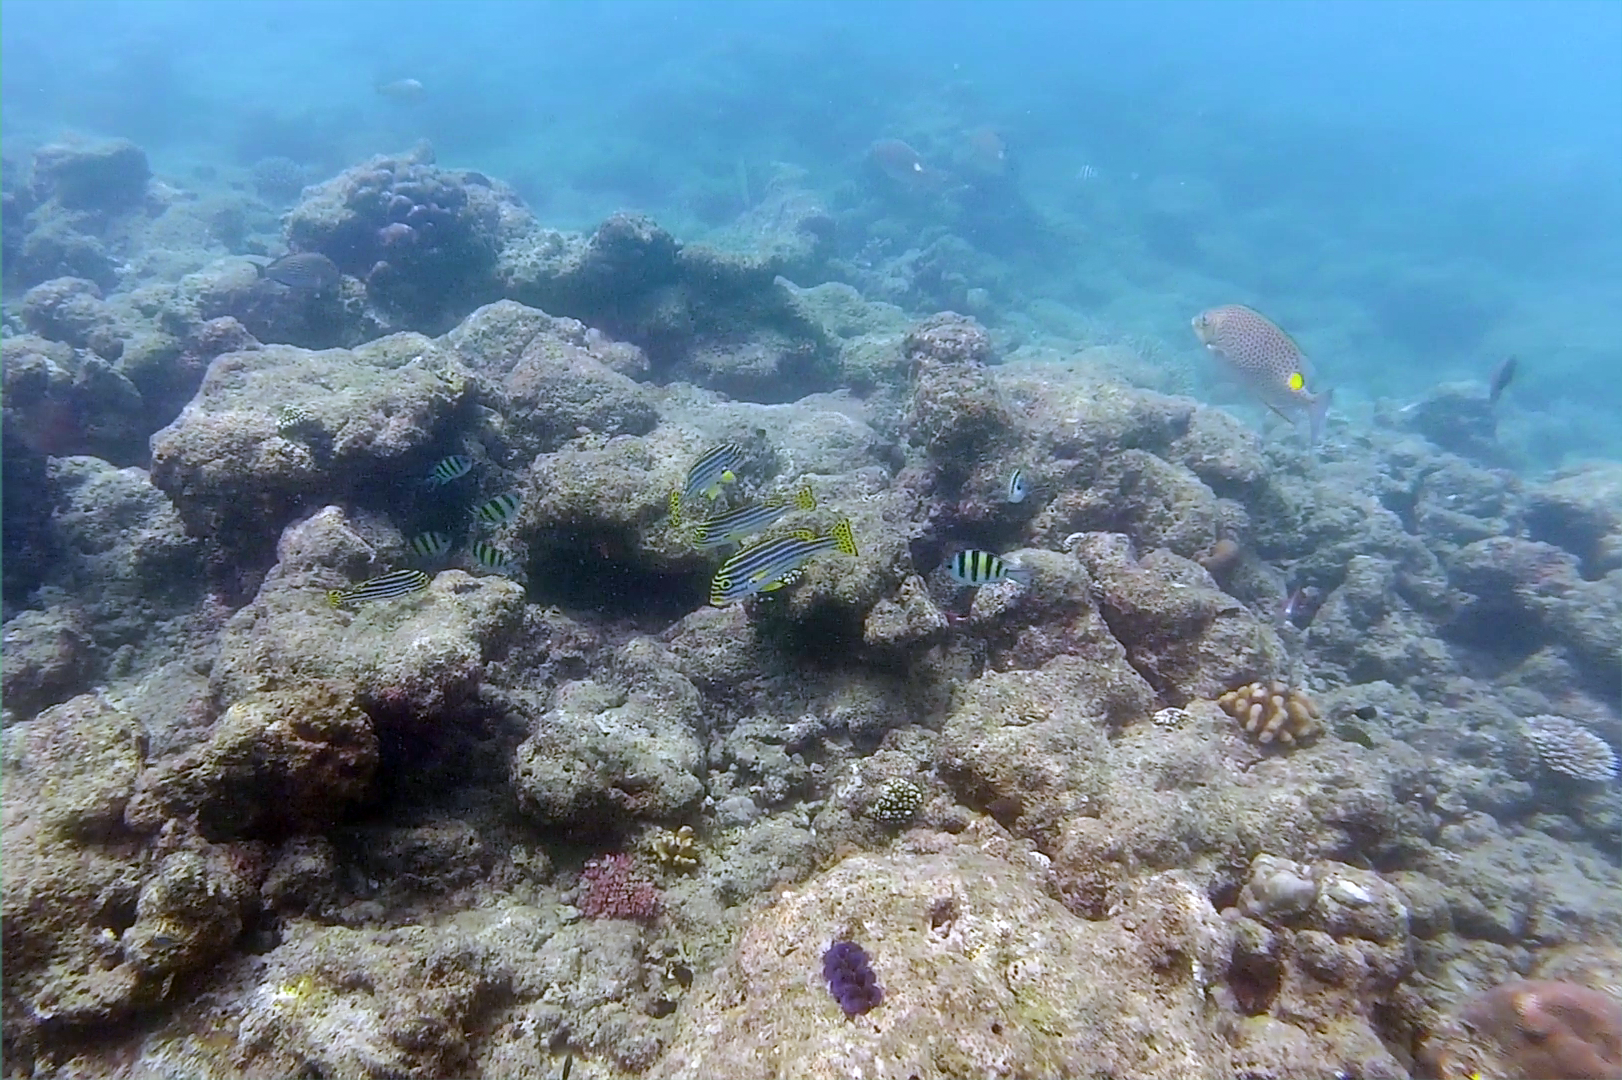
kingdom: Animalia
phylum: Chordata
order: Perciformes
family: Haemulidae
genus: Plectorhinchus
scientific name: Plectorhinchus vittatus
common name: Oriental sweetlips
